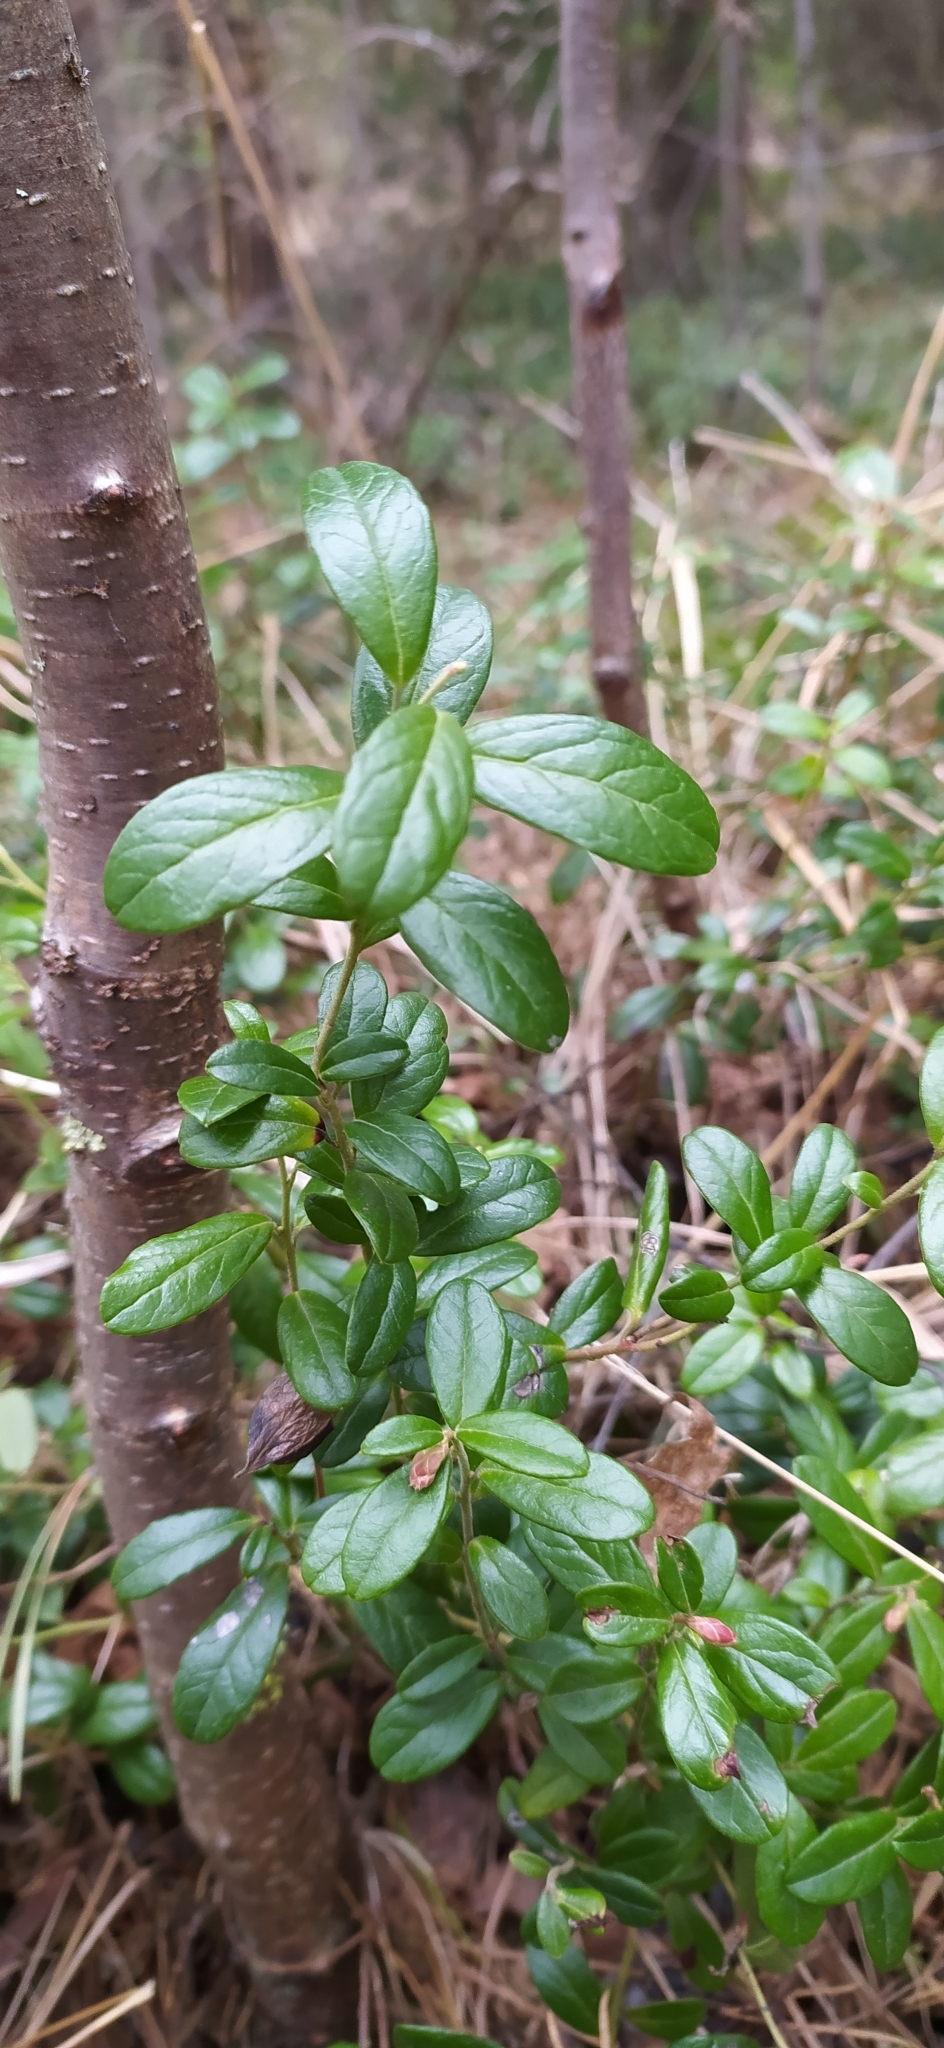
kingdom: Plantae
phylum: Tracheophyta
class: Magnoliopsida
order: Ericales
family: Ericaceae
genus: Vaccinium
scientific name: Vaccinium vitis-idaea
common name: Cowberry
